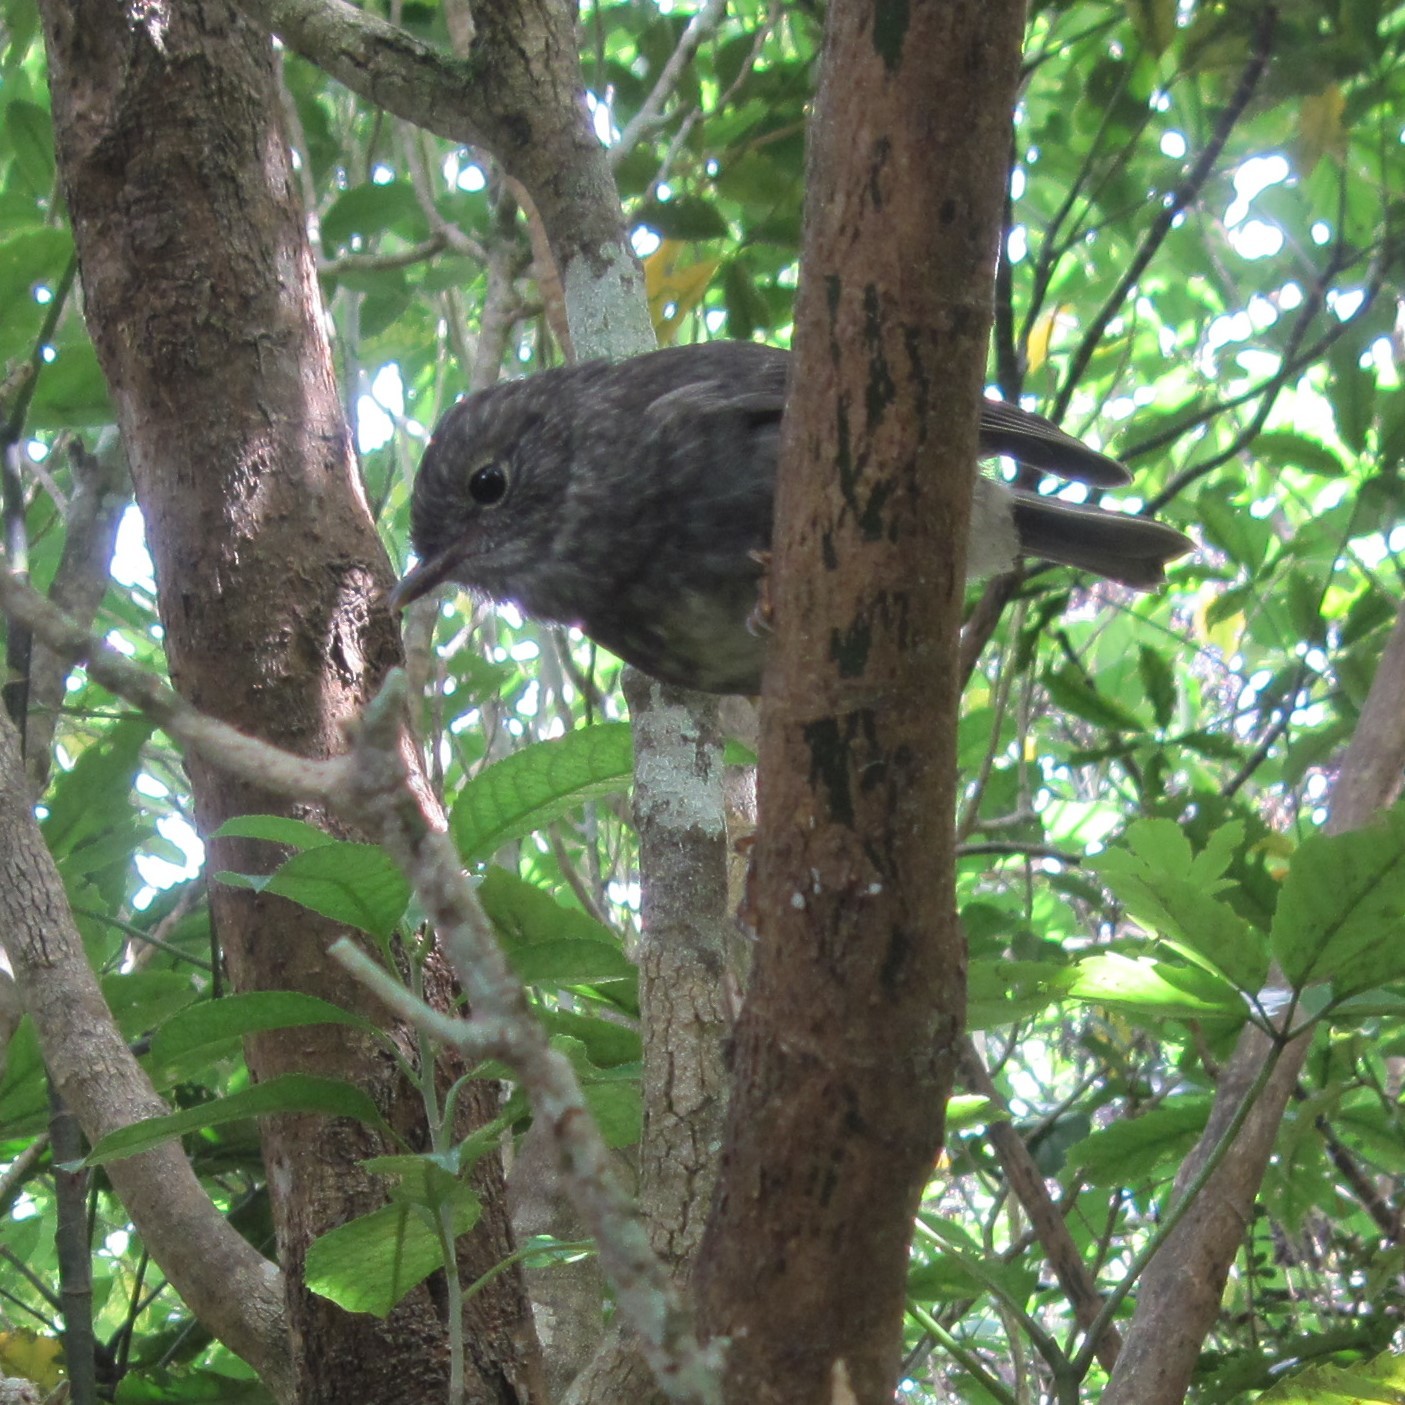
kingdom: Animalia
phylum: Chordata
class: Aves
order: Passeriformes
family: Petroicidae
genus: Petroica
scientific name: Petroica australis
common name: New zealand robin
